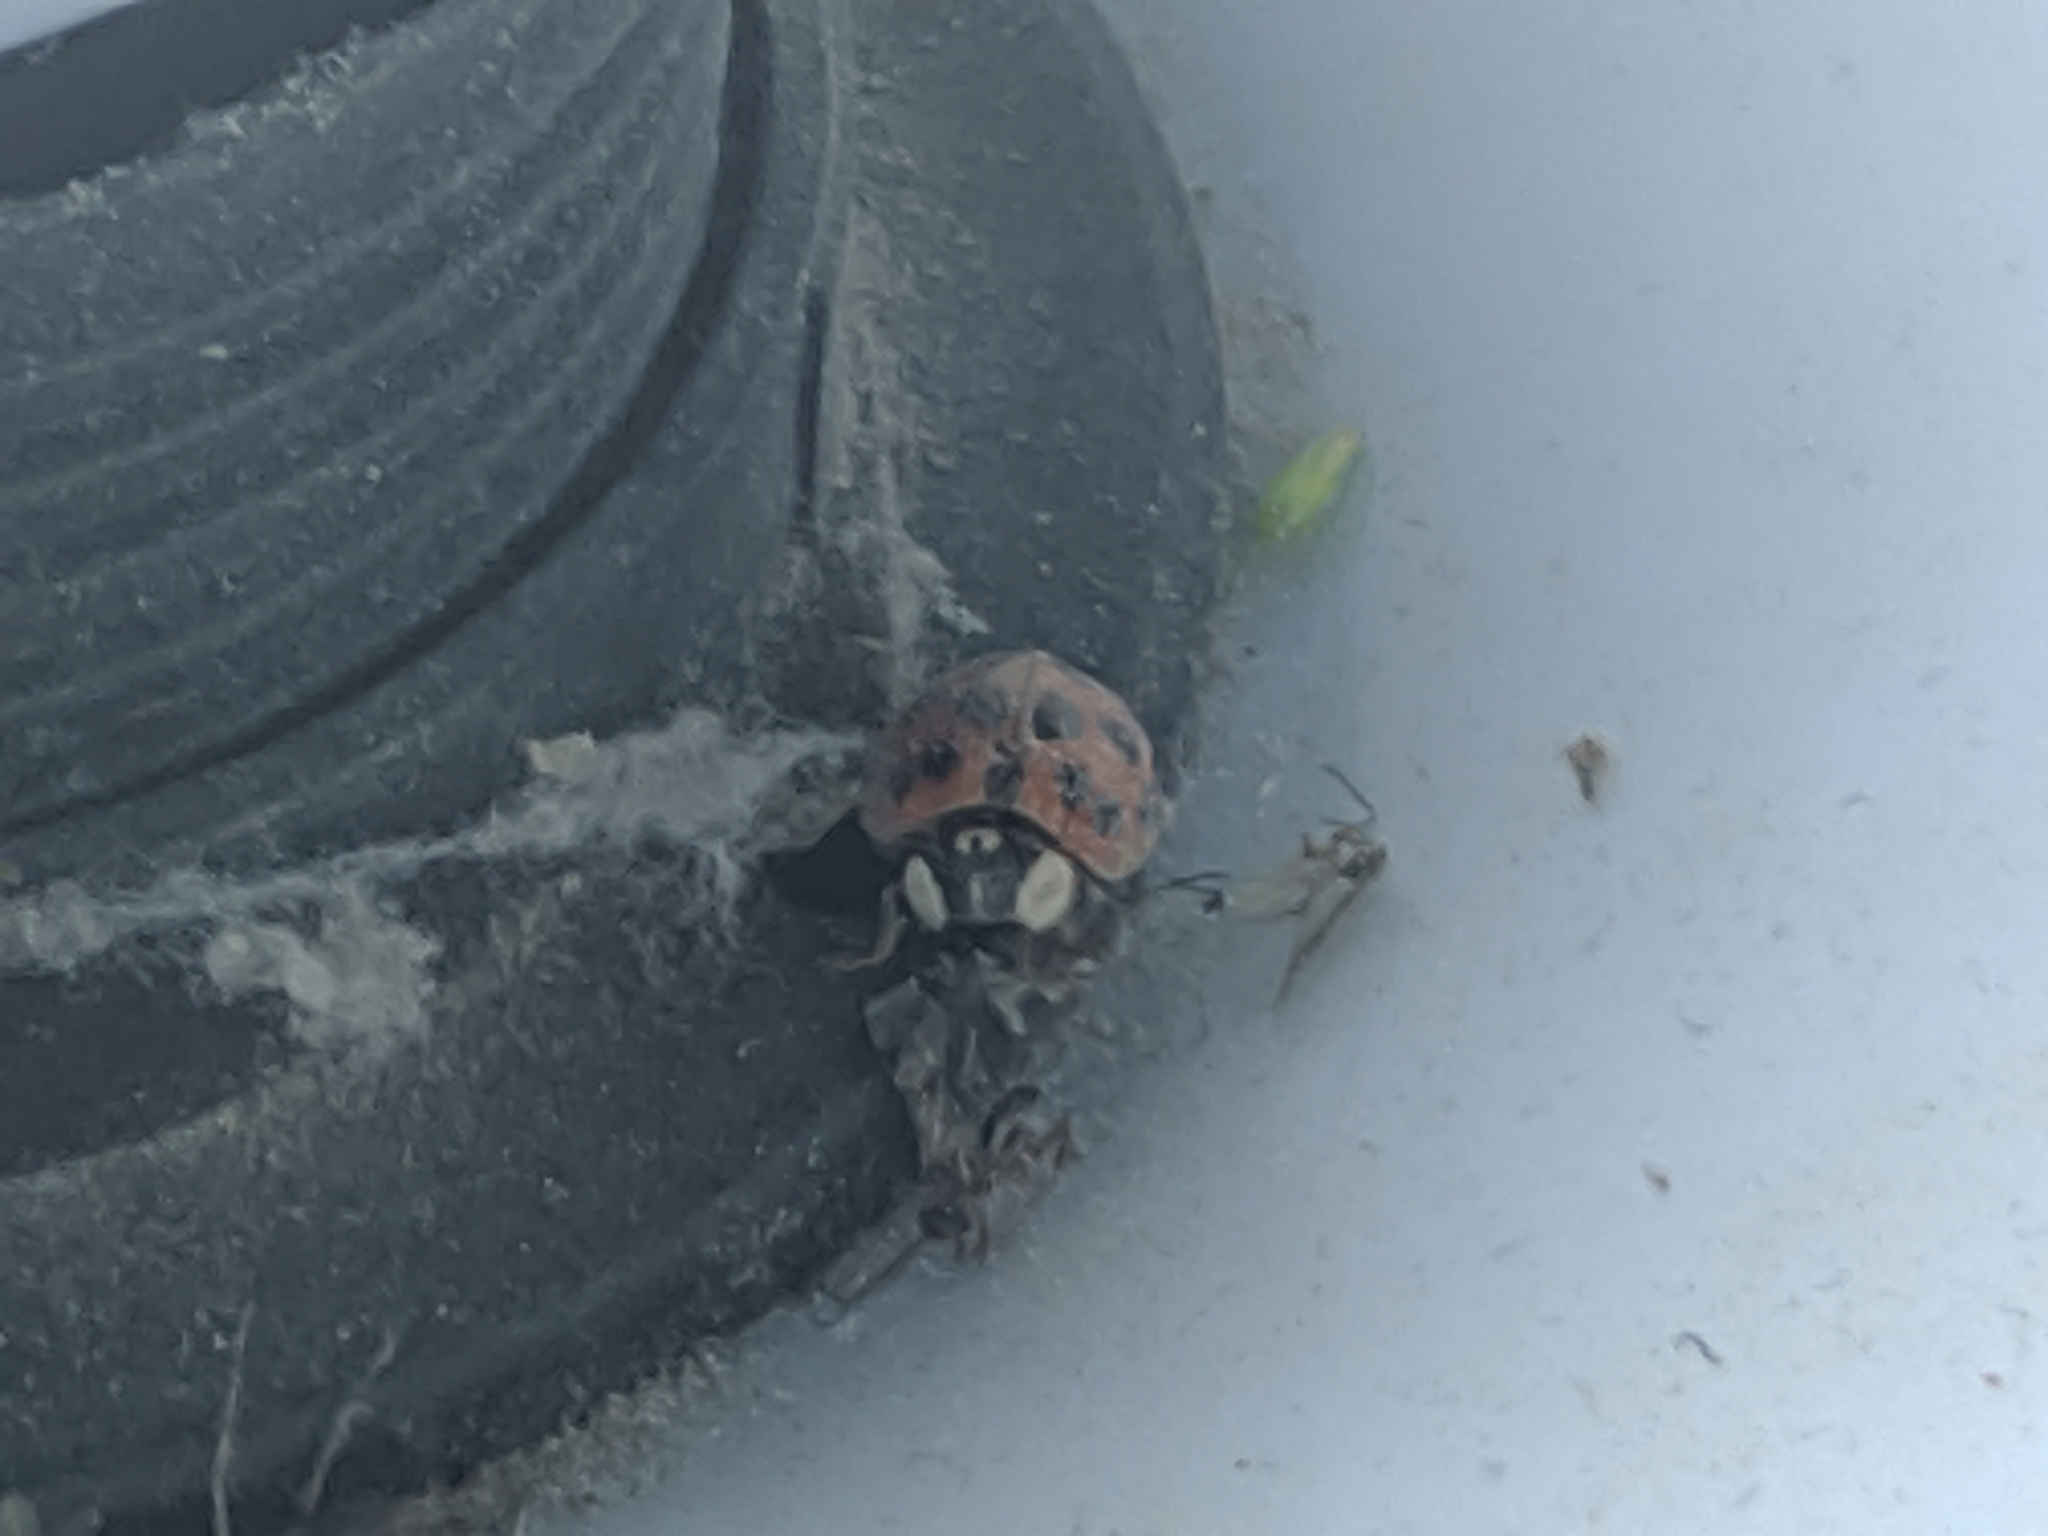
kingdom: Animalia
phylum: Arthropoda
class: Insecta
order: Coleoptera
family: Coccinellidae
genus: Harmonia
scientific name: Harmonia axyridis
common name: Harlequin ladybird
